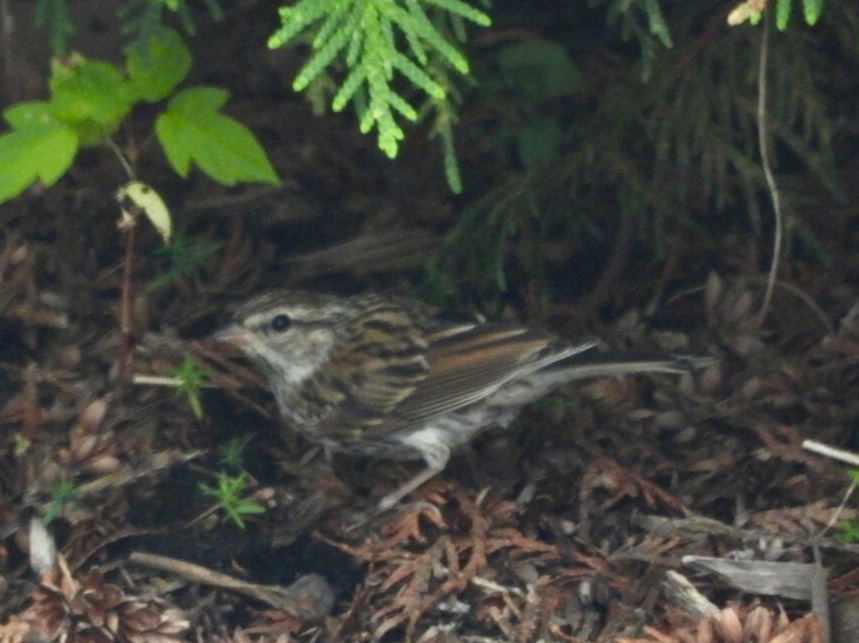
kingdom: Animalia
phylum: Chordata
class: Aves
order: Passeriformes
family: Passerellidae
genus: Spizella
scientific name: Spizella passerina
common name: Chipping sparrow
